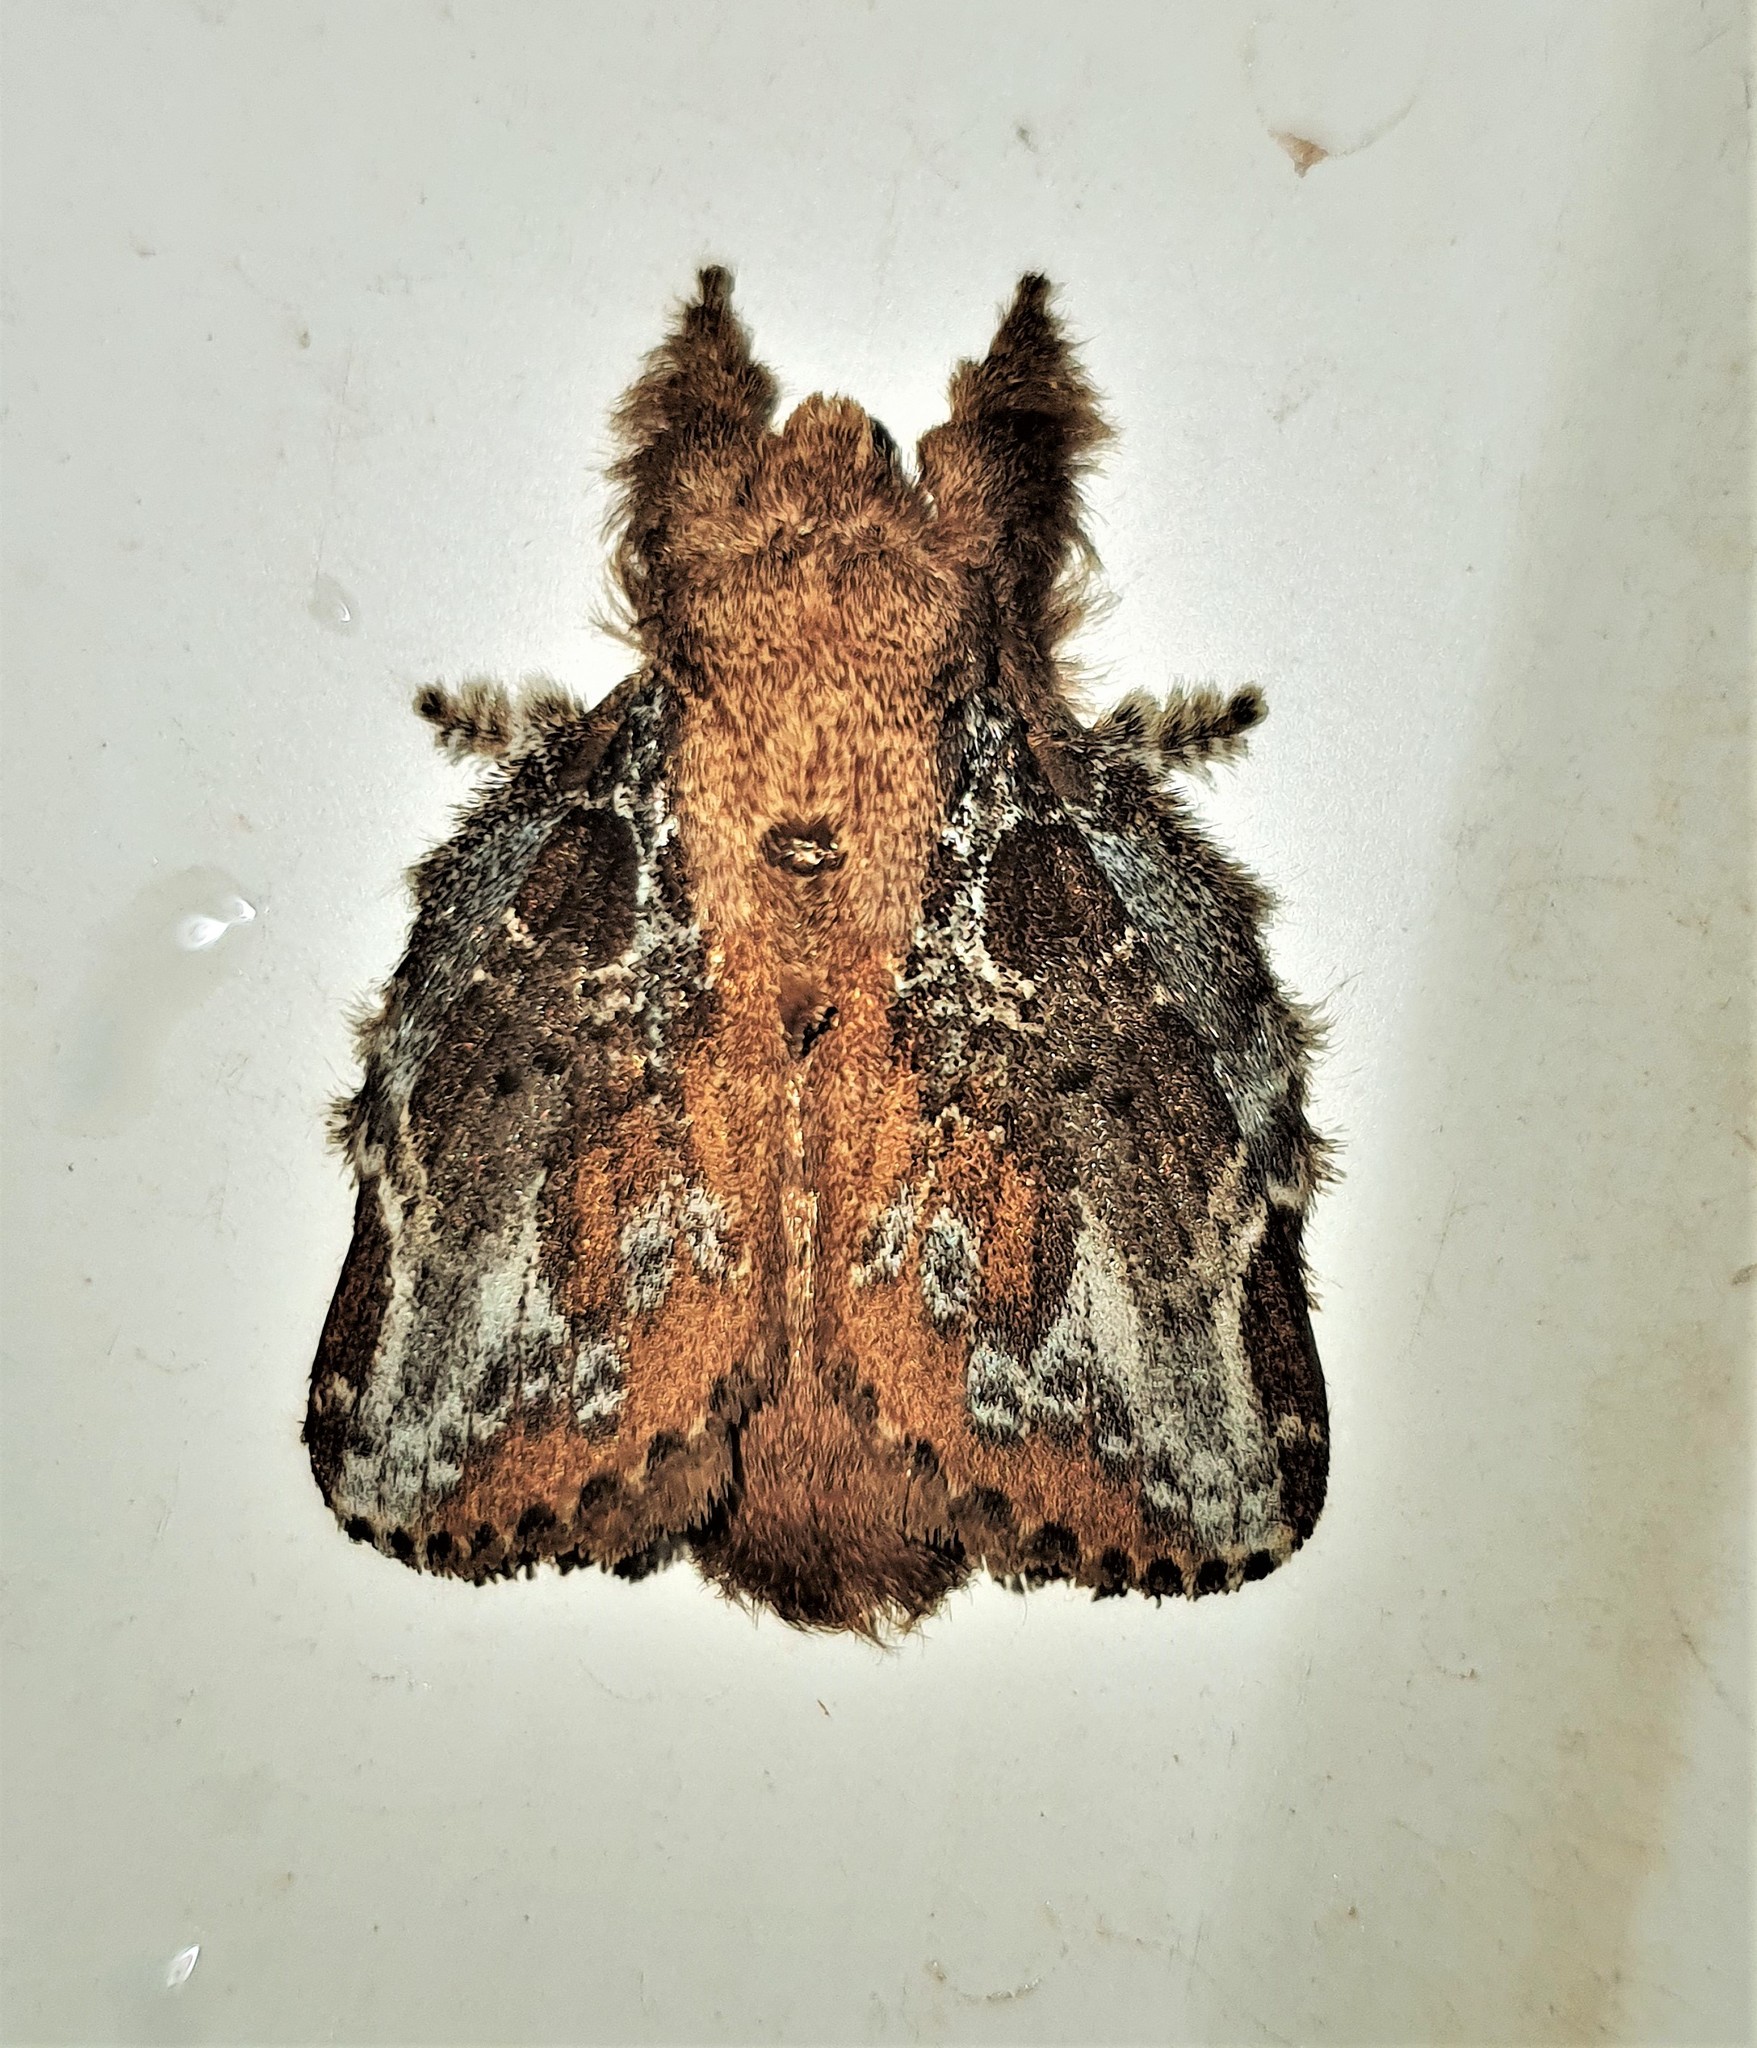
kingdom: Animalia
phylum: Arthropoda
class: Insecta
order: Lepidoptera
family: Lasiocampidae
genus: Euglyphis
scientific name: Euglyphis rundala
